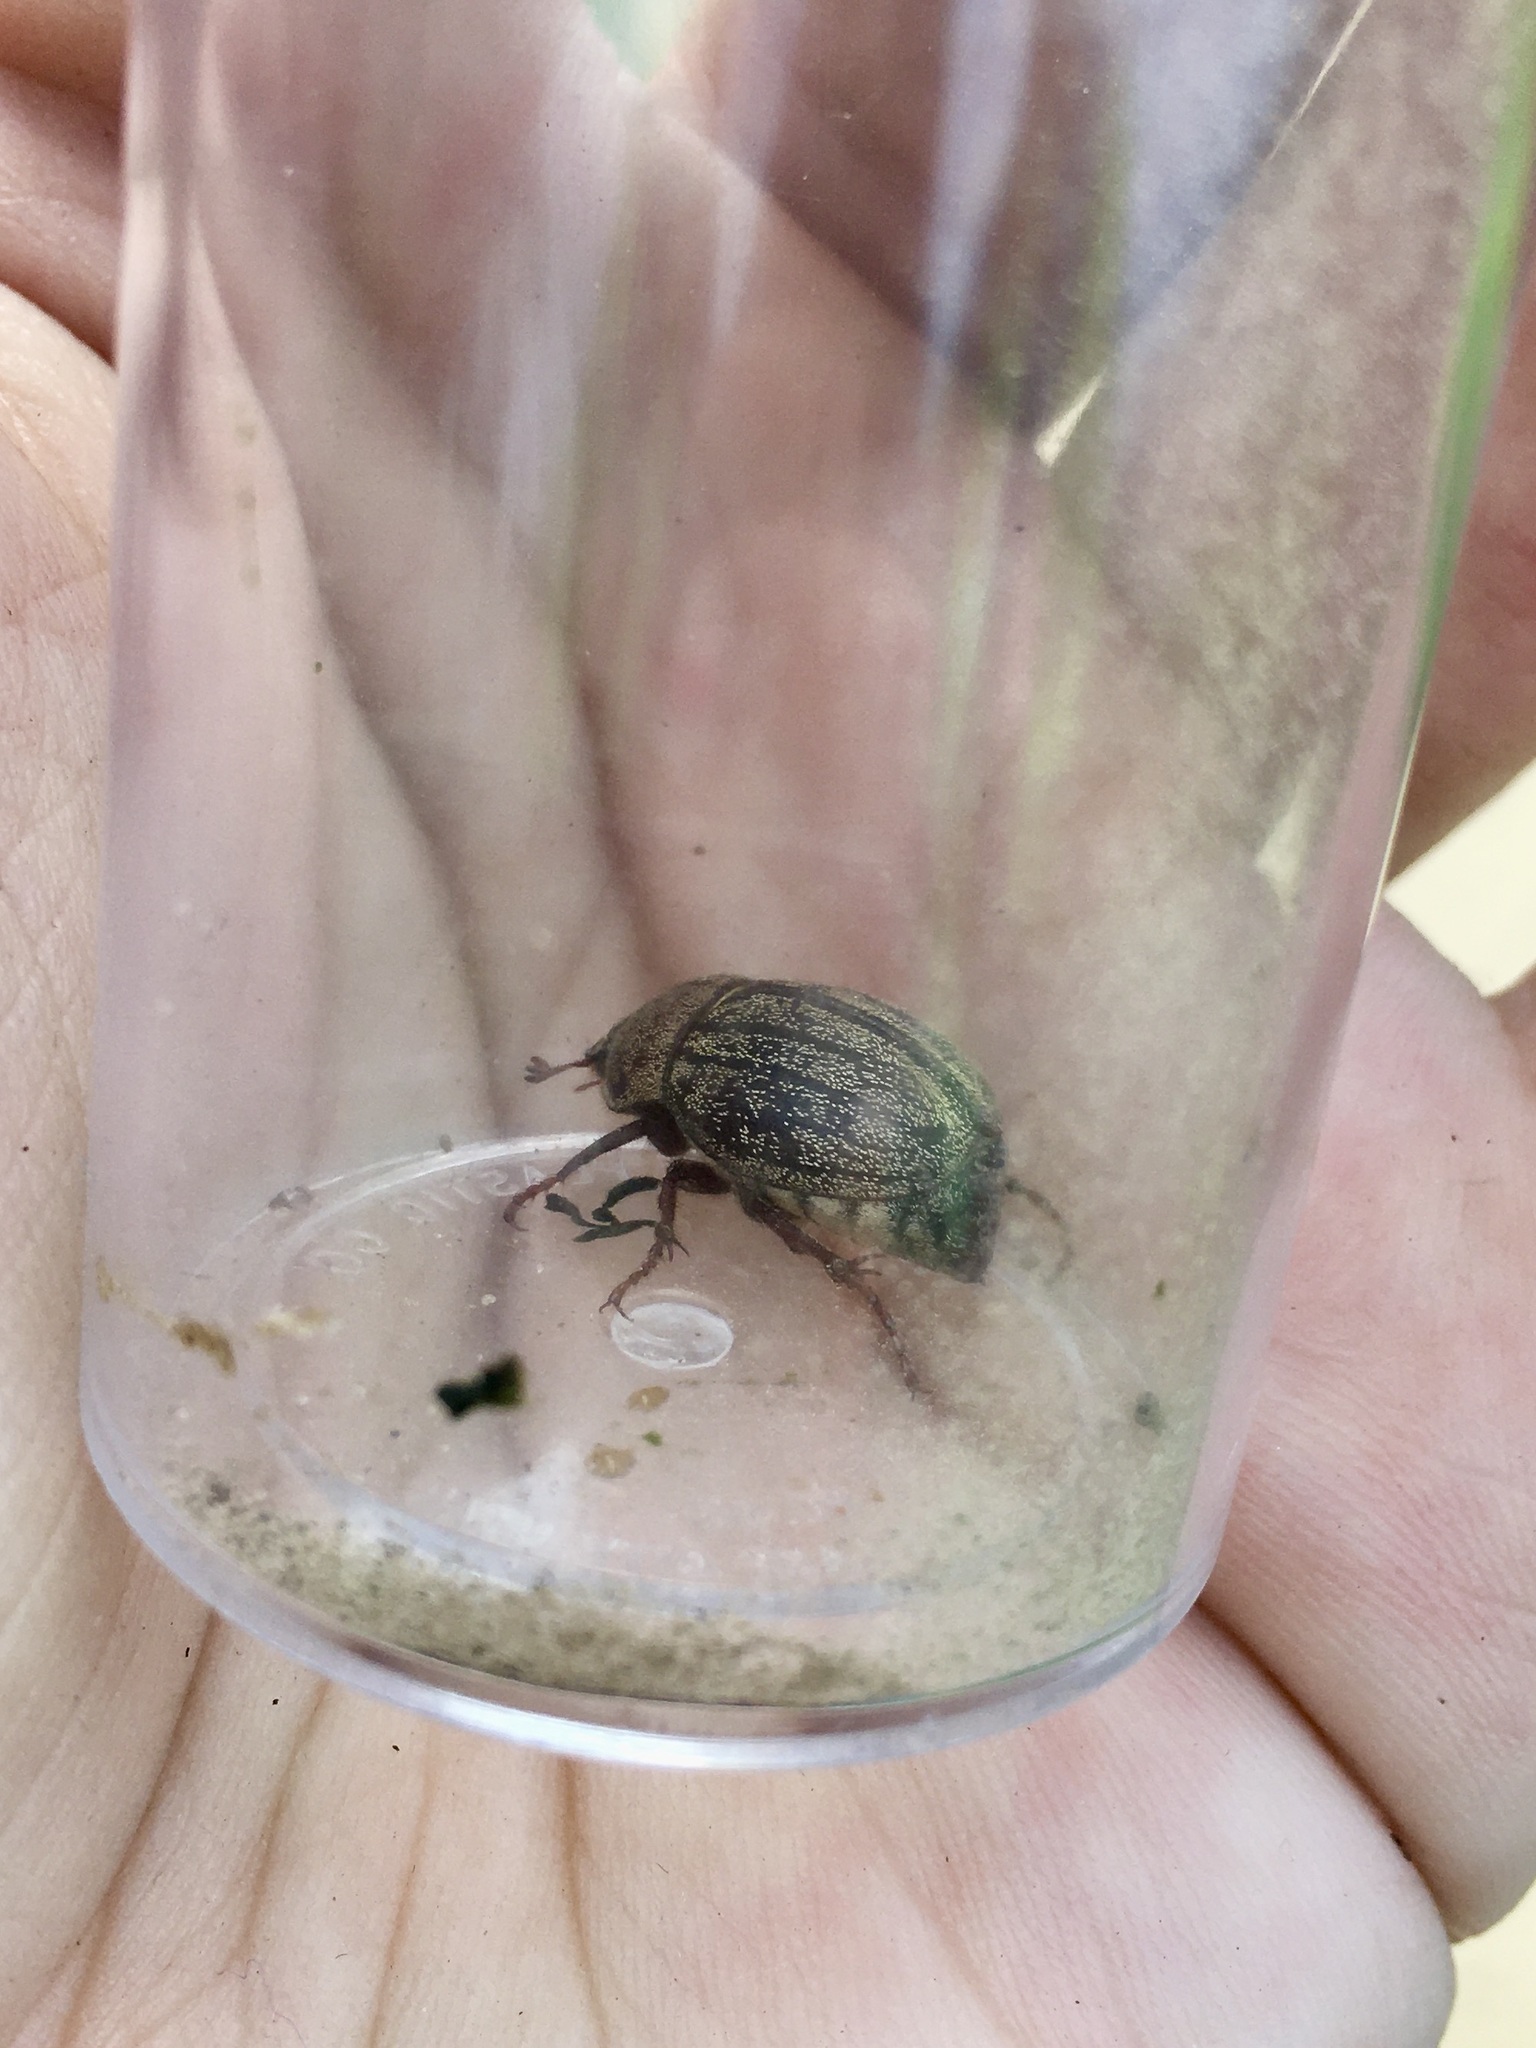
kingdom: Animalia
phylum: Arthropoda
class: Insecta
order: Coleoptera
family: Scarabaeidae
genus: Phyllophaga
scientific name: Phyllophaga lanceolata
